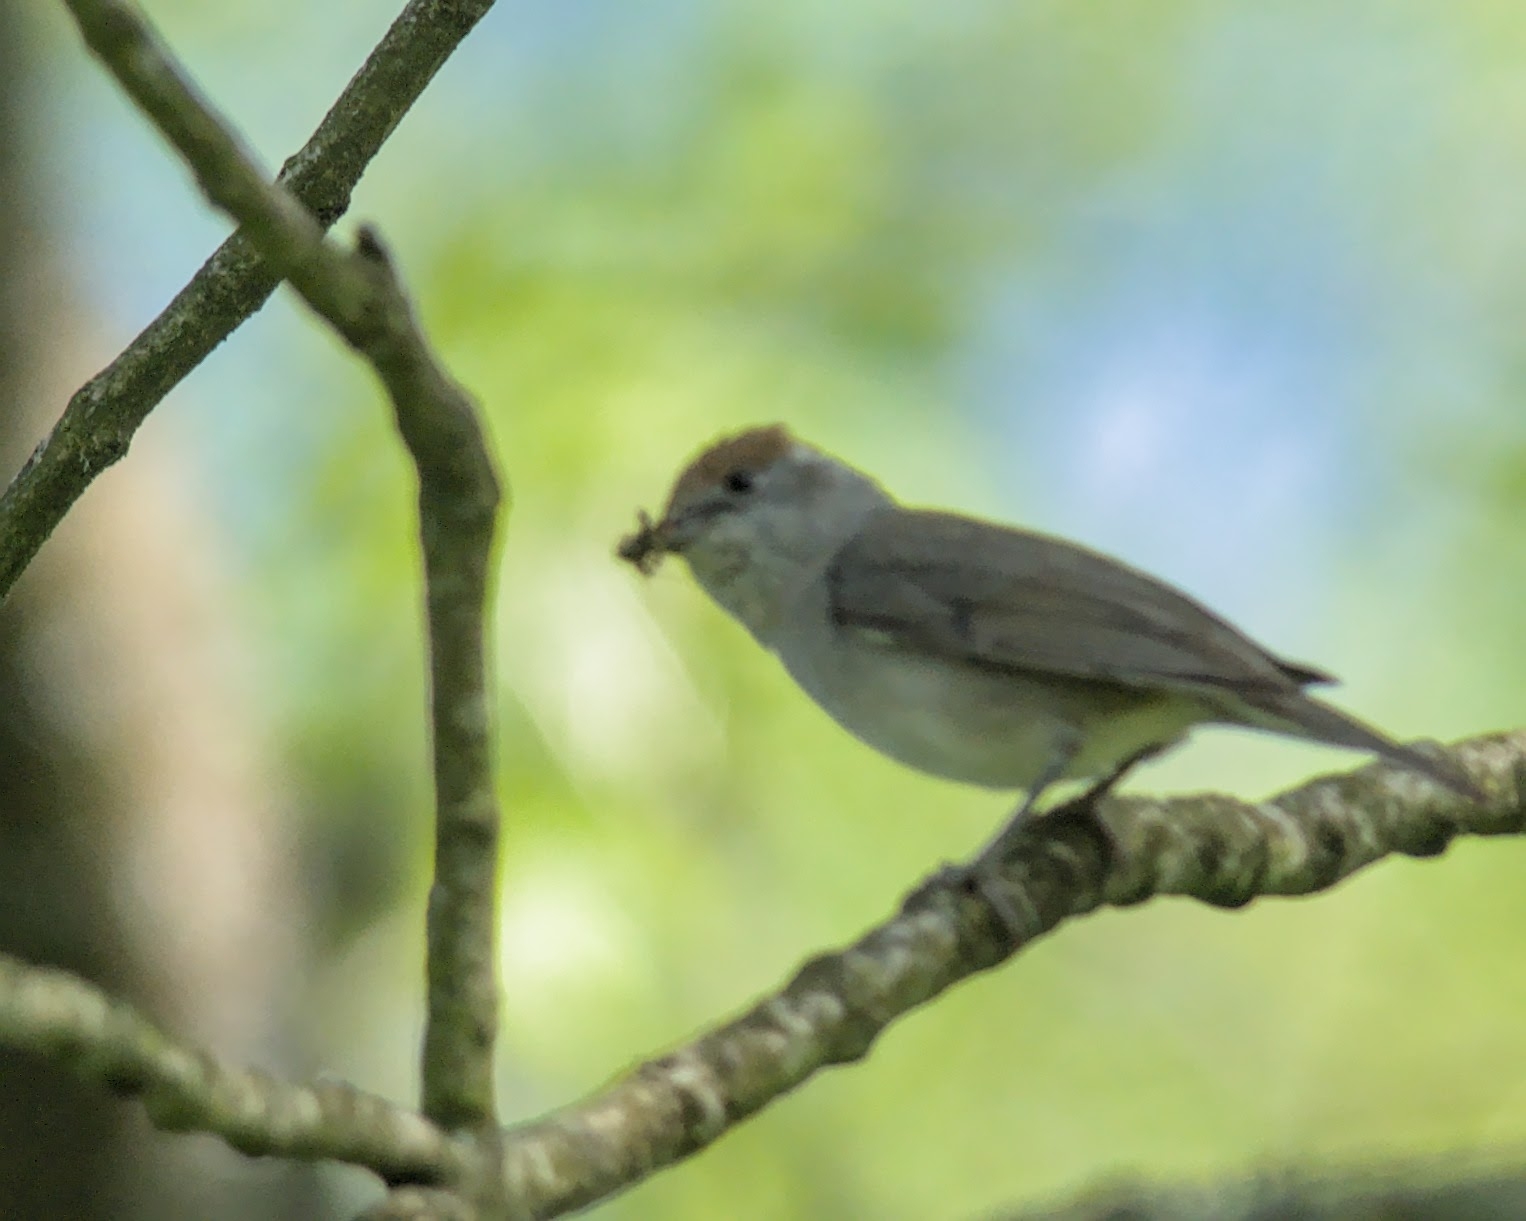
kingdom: Animalia
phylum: Chordata
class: Aves
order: Passeriformes
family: Sylviidae
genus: Sylvia
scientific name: Sylvia atricapilla
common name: Eurasian blackcap
